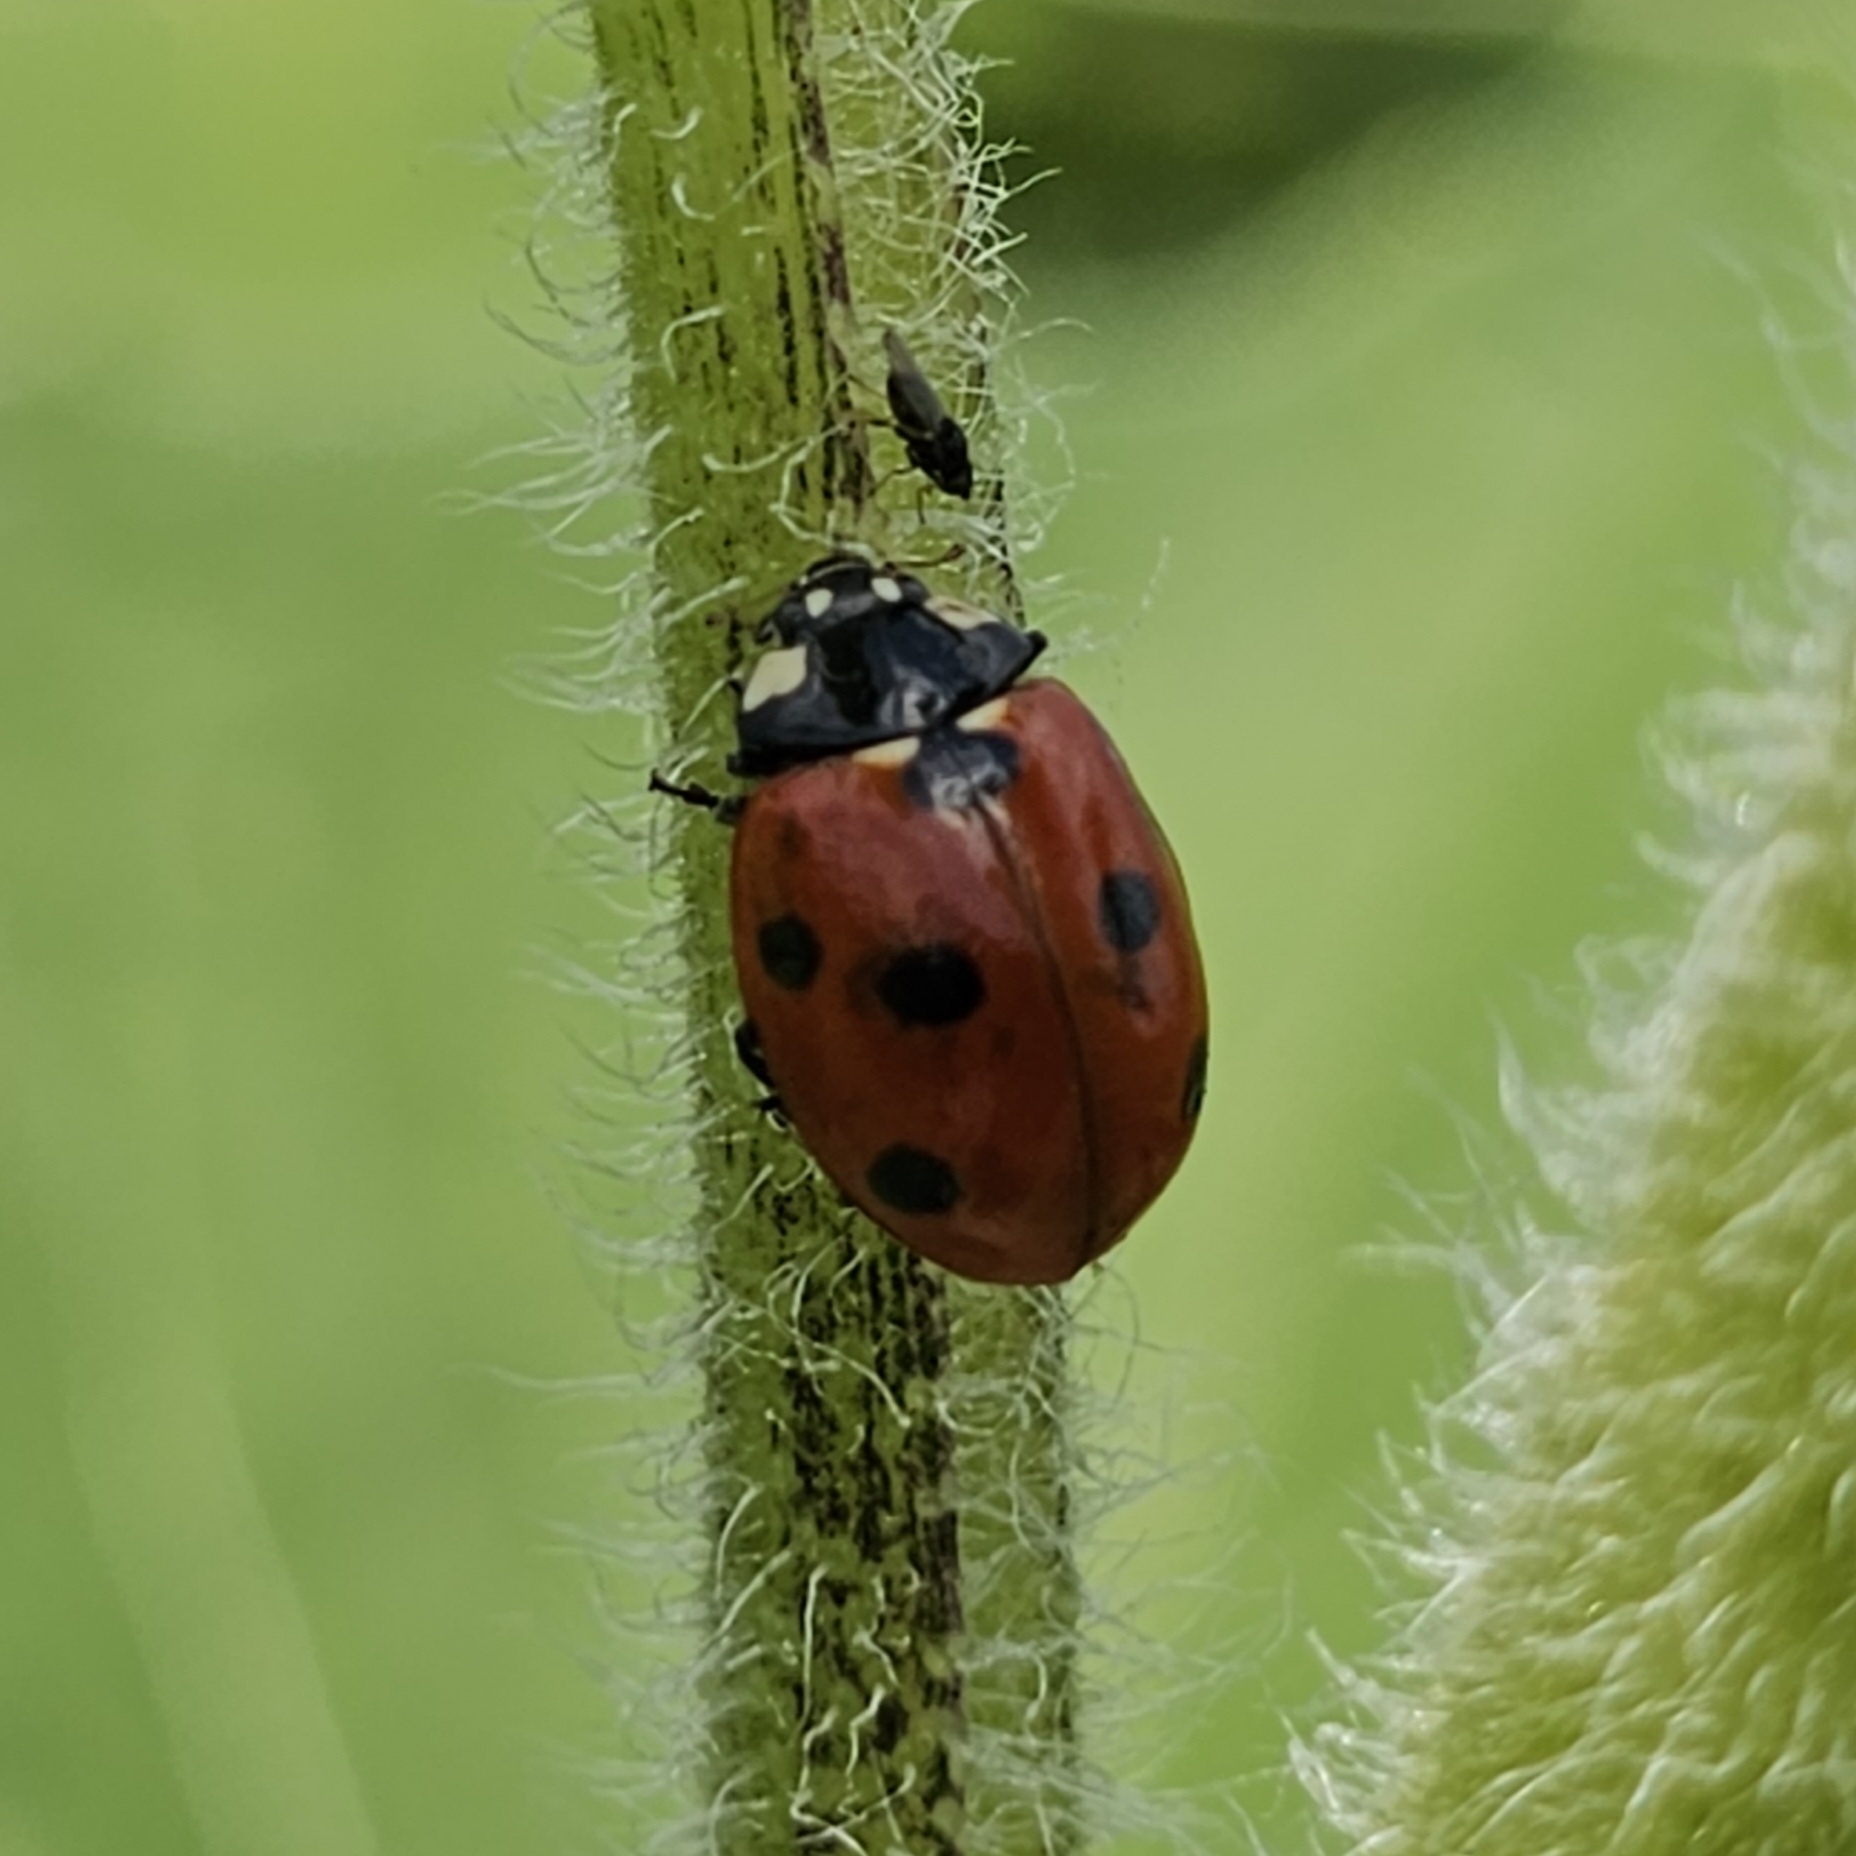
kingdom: Animalia
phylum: Arthropoda
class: Insecta
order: Coleoptera
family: Coccinellidae
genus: Coccinella
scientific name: Coccinella septempunctata
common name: Sevenspotted lady beetle
